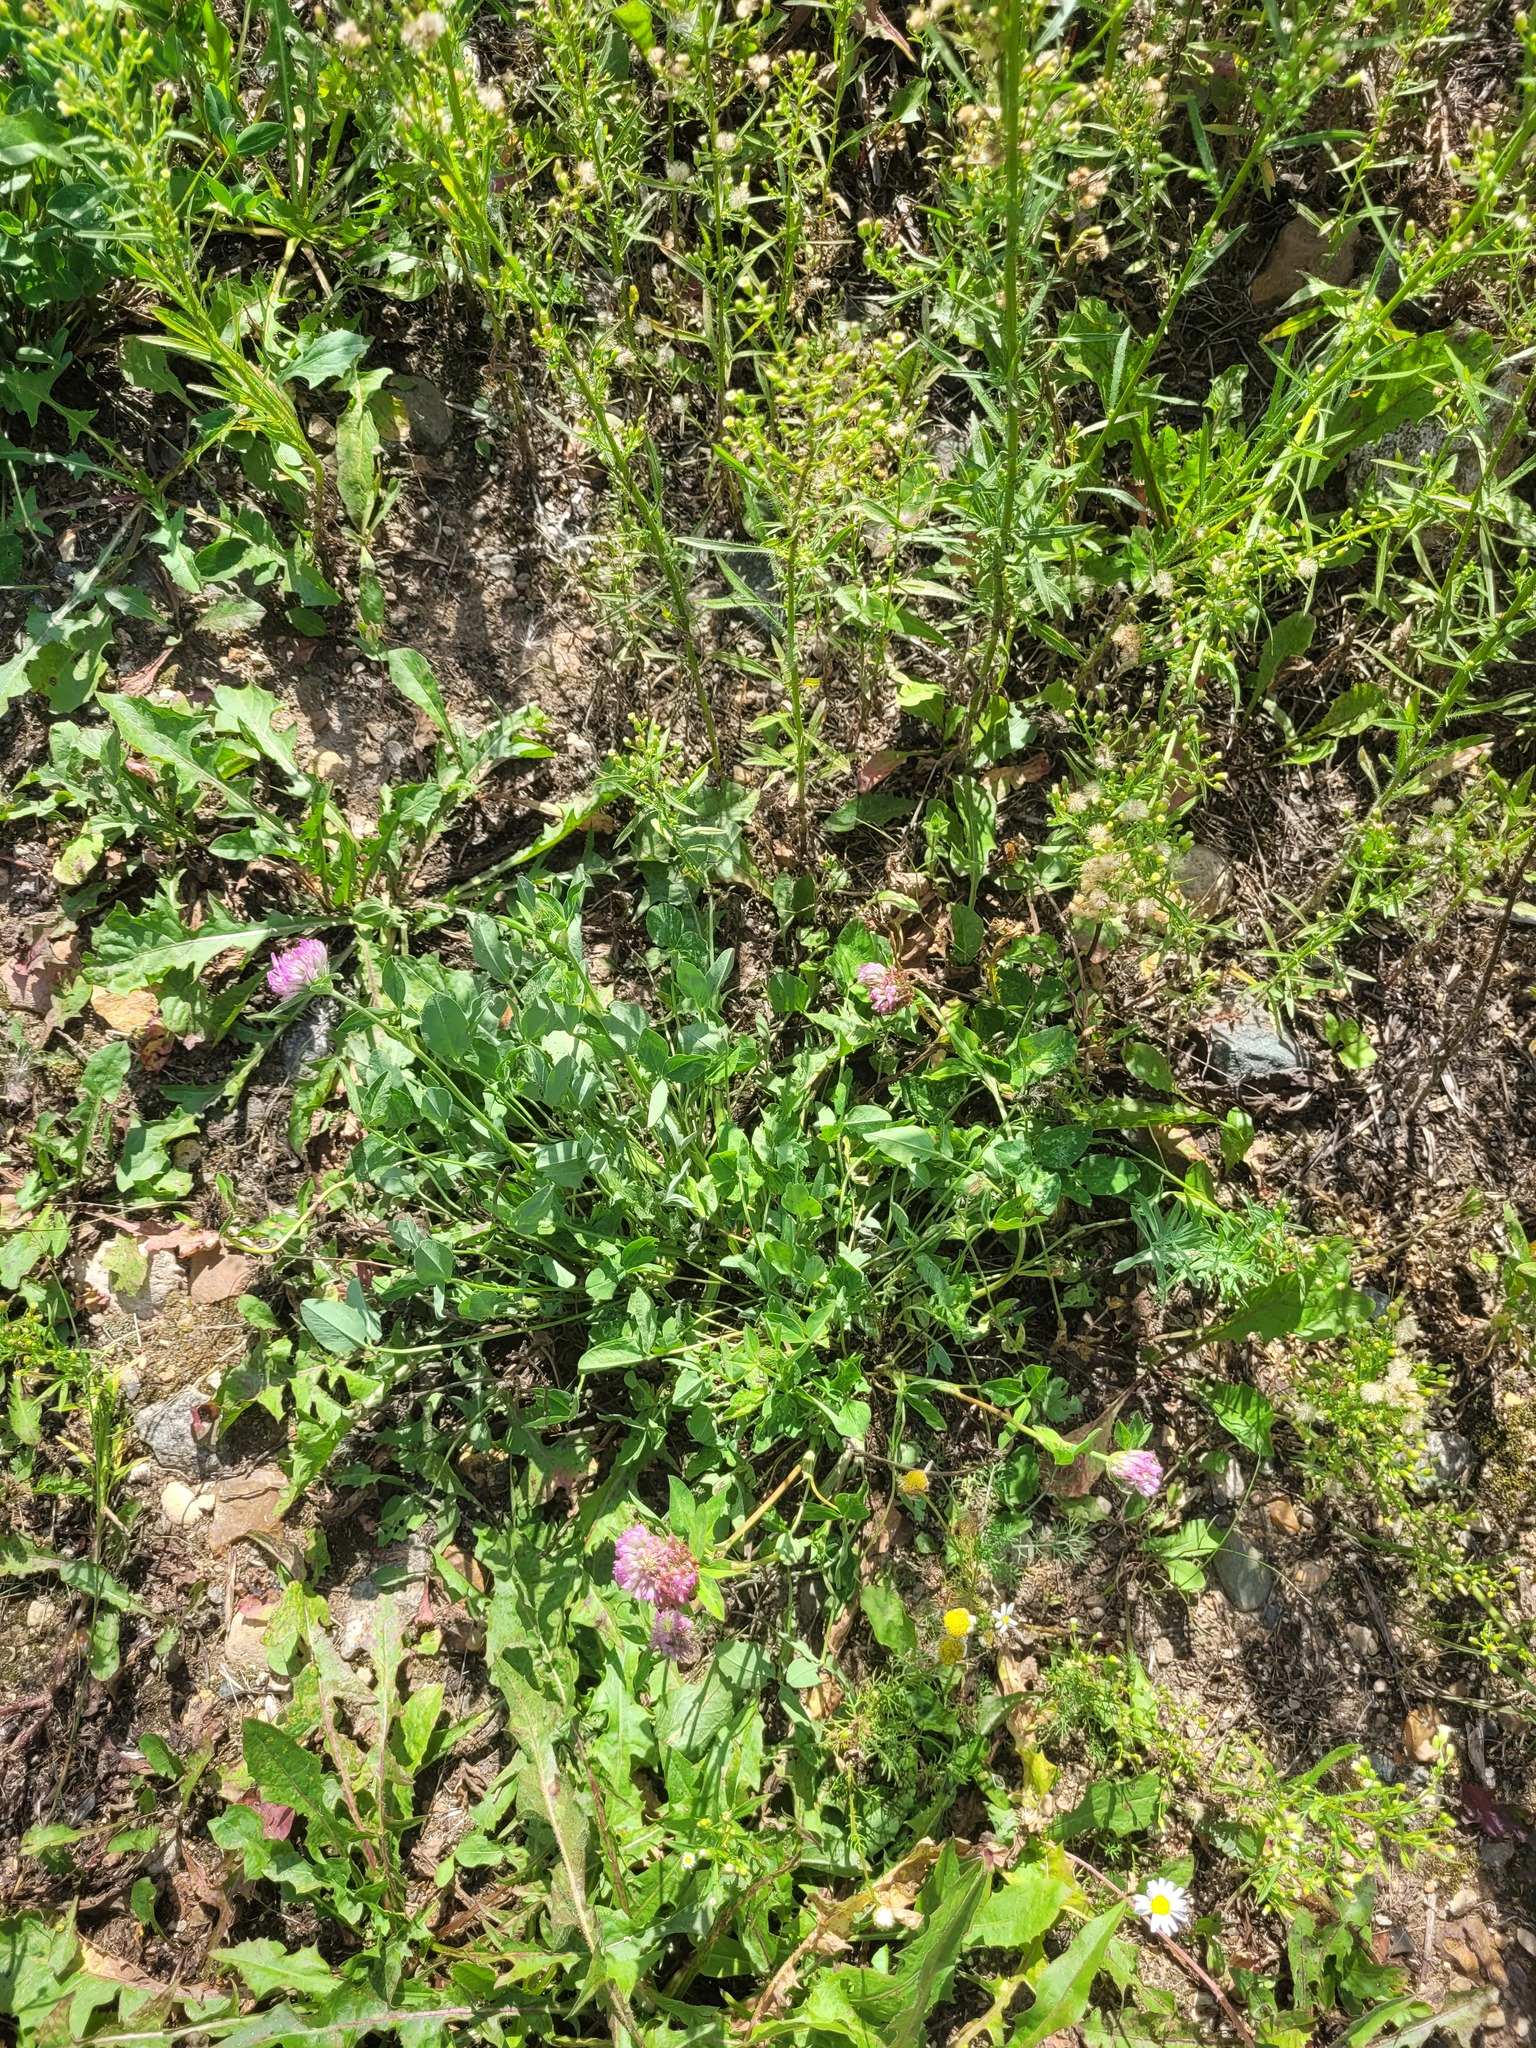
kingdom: Plantae
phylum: Tracheophyta
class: Magnoliopsida
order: Fabales
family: Fabaceae
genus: Trifolium
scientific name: Trifolium pratense
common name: Red clover
